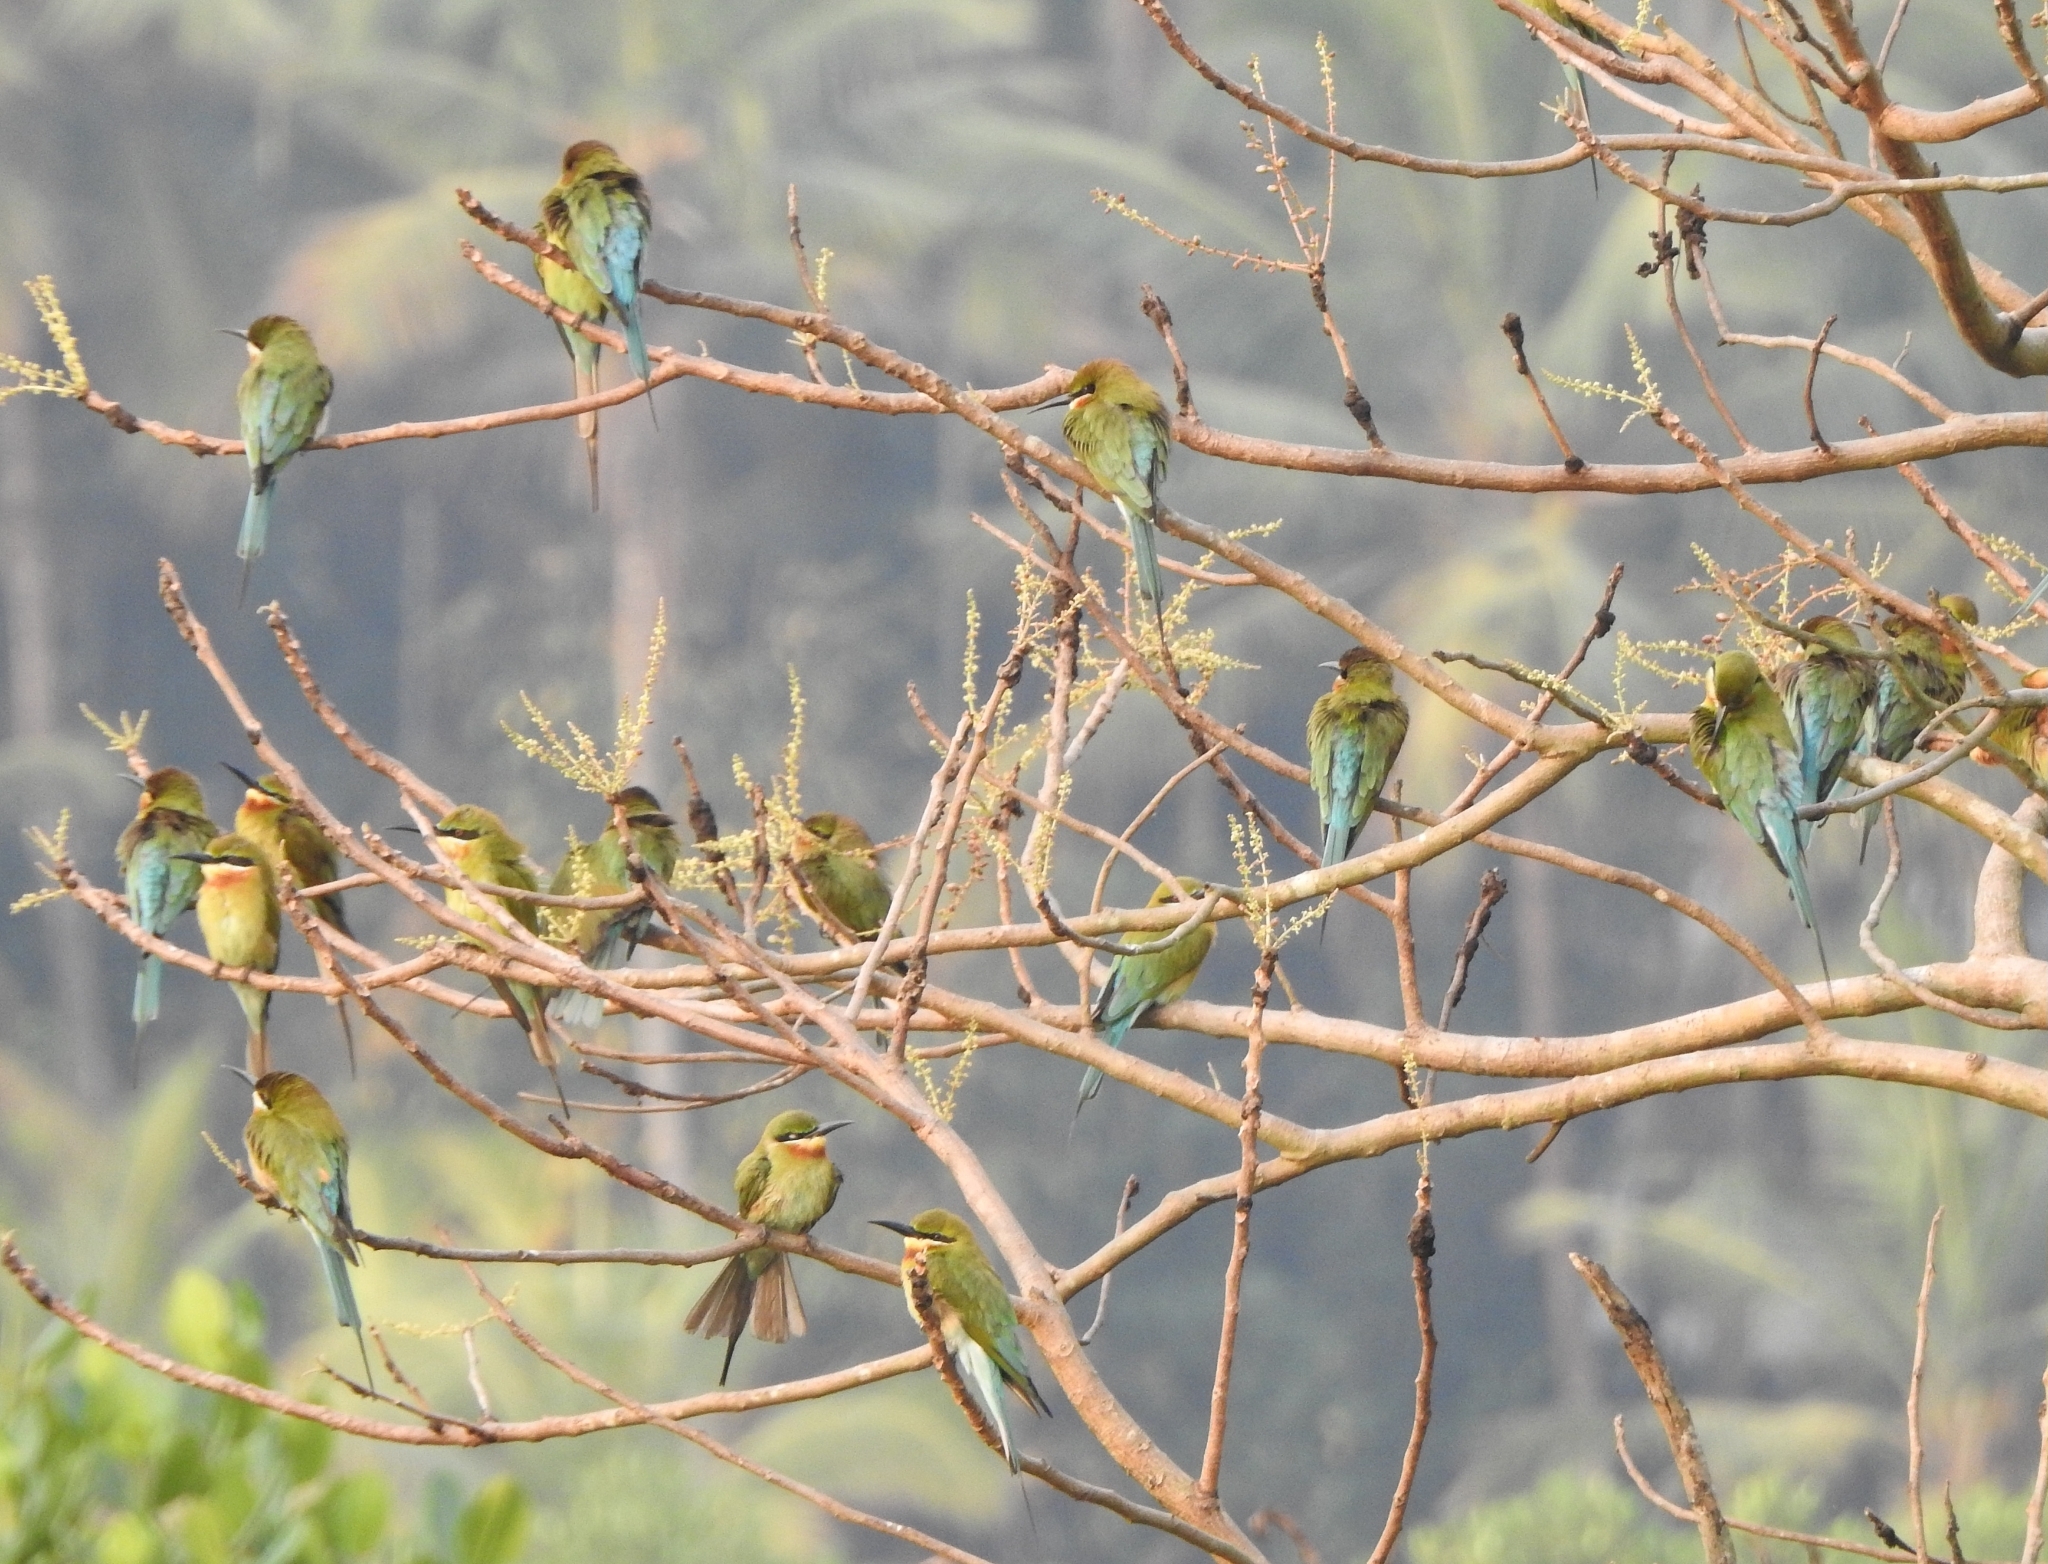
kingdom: Animalia
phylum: Chordata
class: Aves
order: Coraciiformes
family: Meropidae
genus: Merops
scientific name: Merops philippinus
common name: Blue-tailed bee-eater
